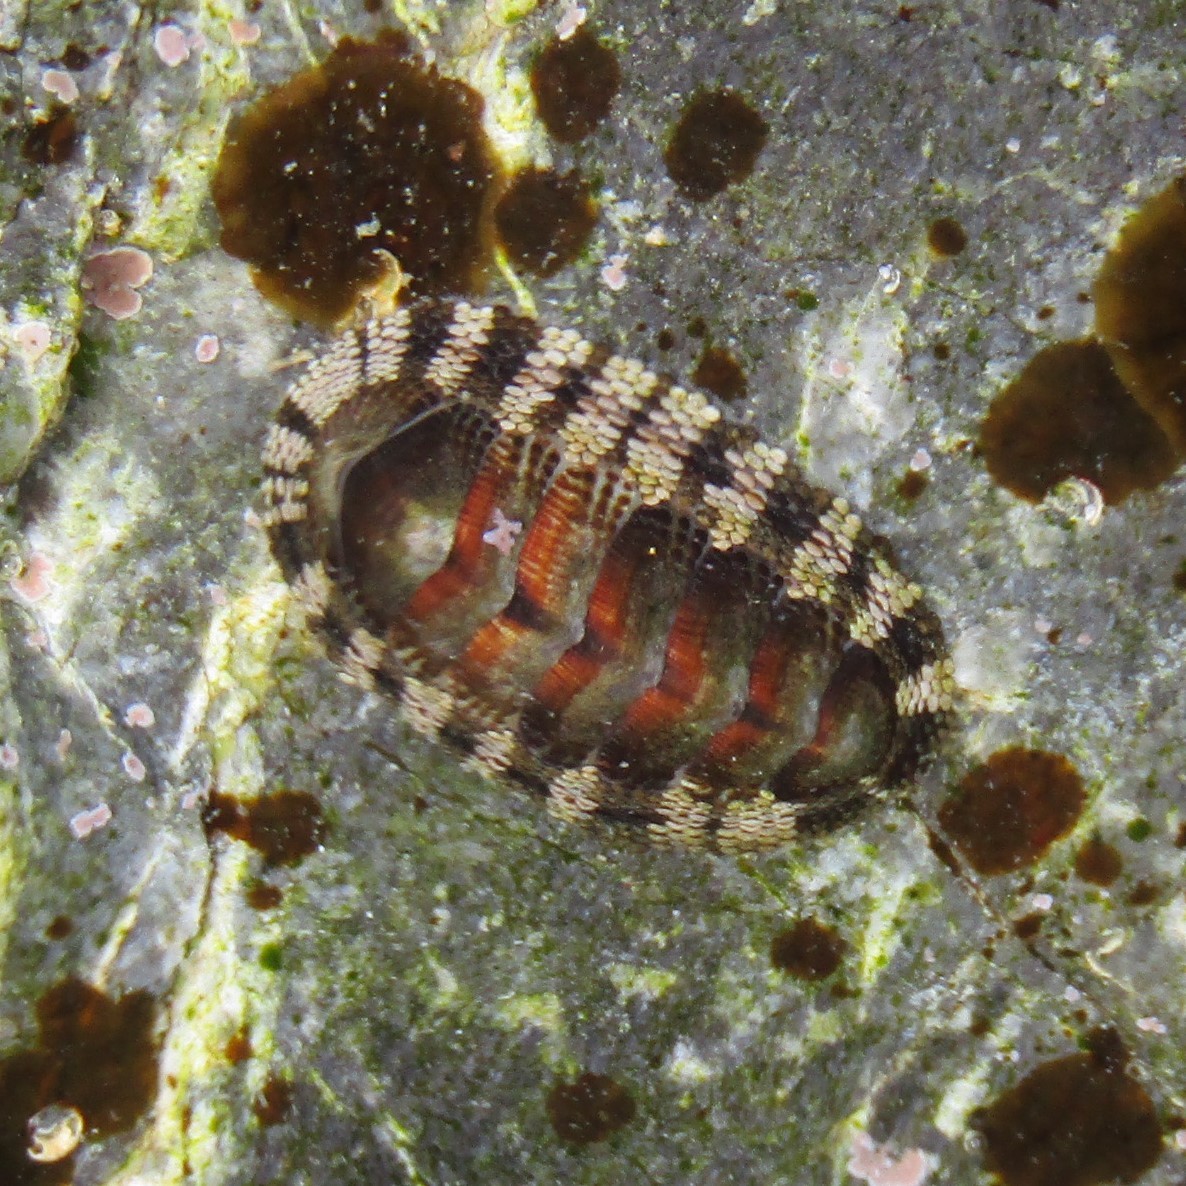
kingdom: Animalia
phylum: Mollusca
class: Polyplacophora
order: Chitonida
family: Chitonidae
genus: Sypharochiton
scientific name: Sypharochiton pelliserpentis
